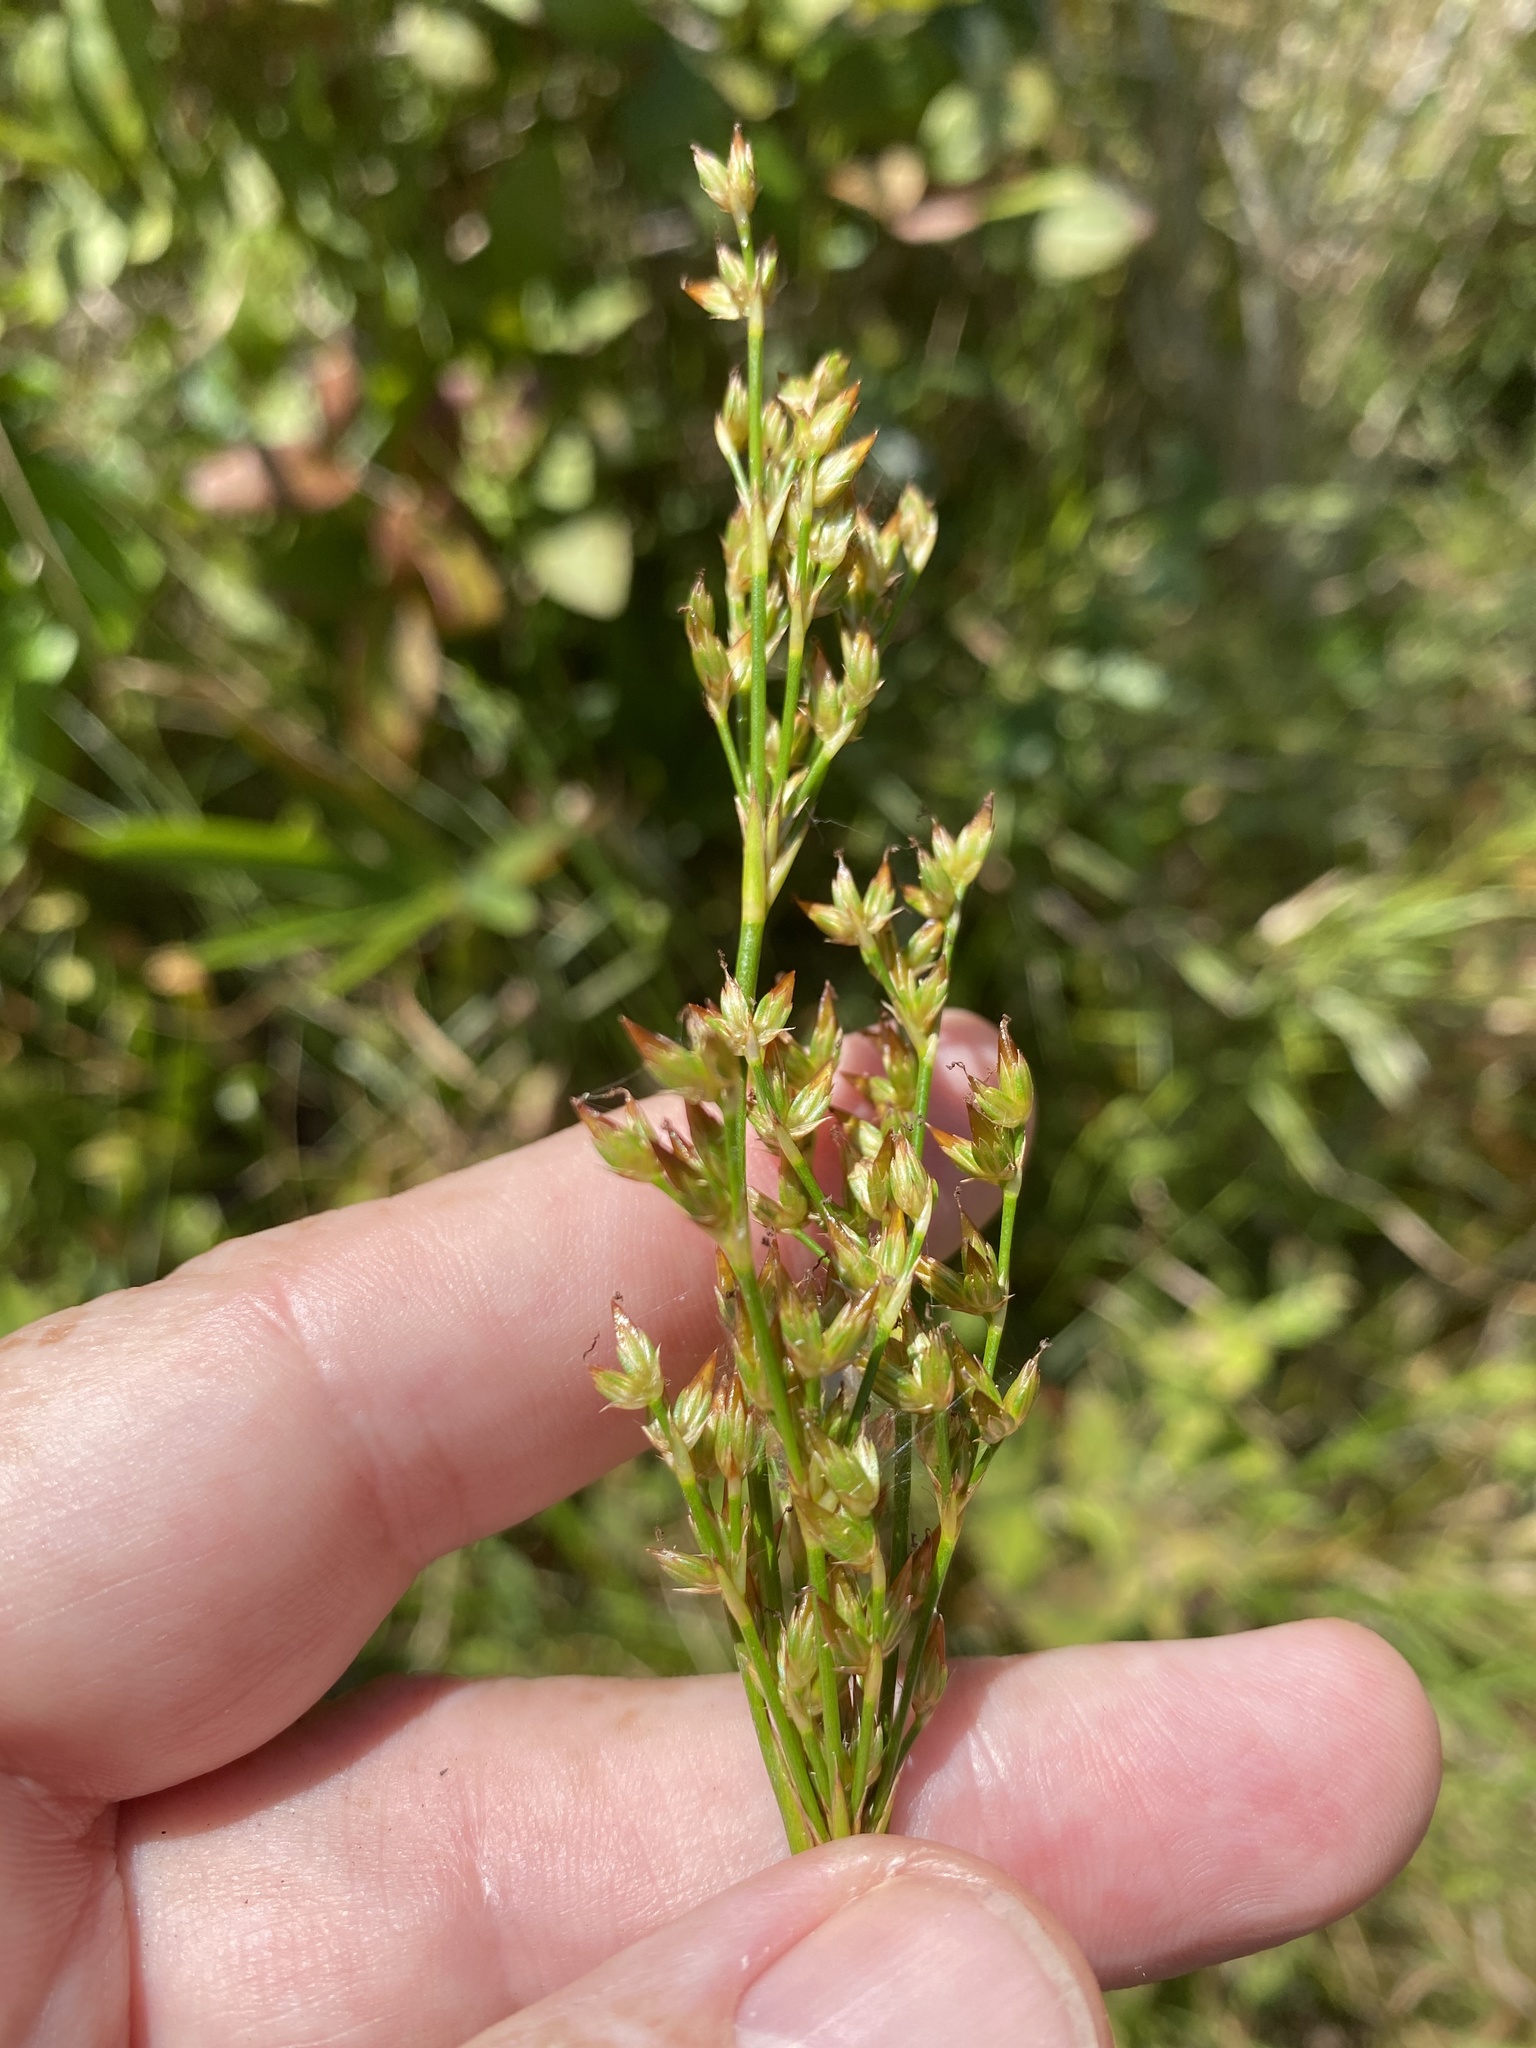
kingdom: Plantae
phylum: Tracheophyta
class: Liliopsida
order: Poales
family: Juncaceae
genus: Juncus
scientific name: Juncus trigonocarpus
